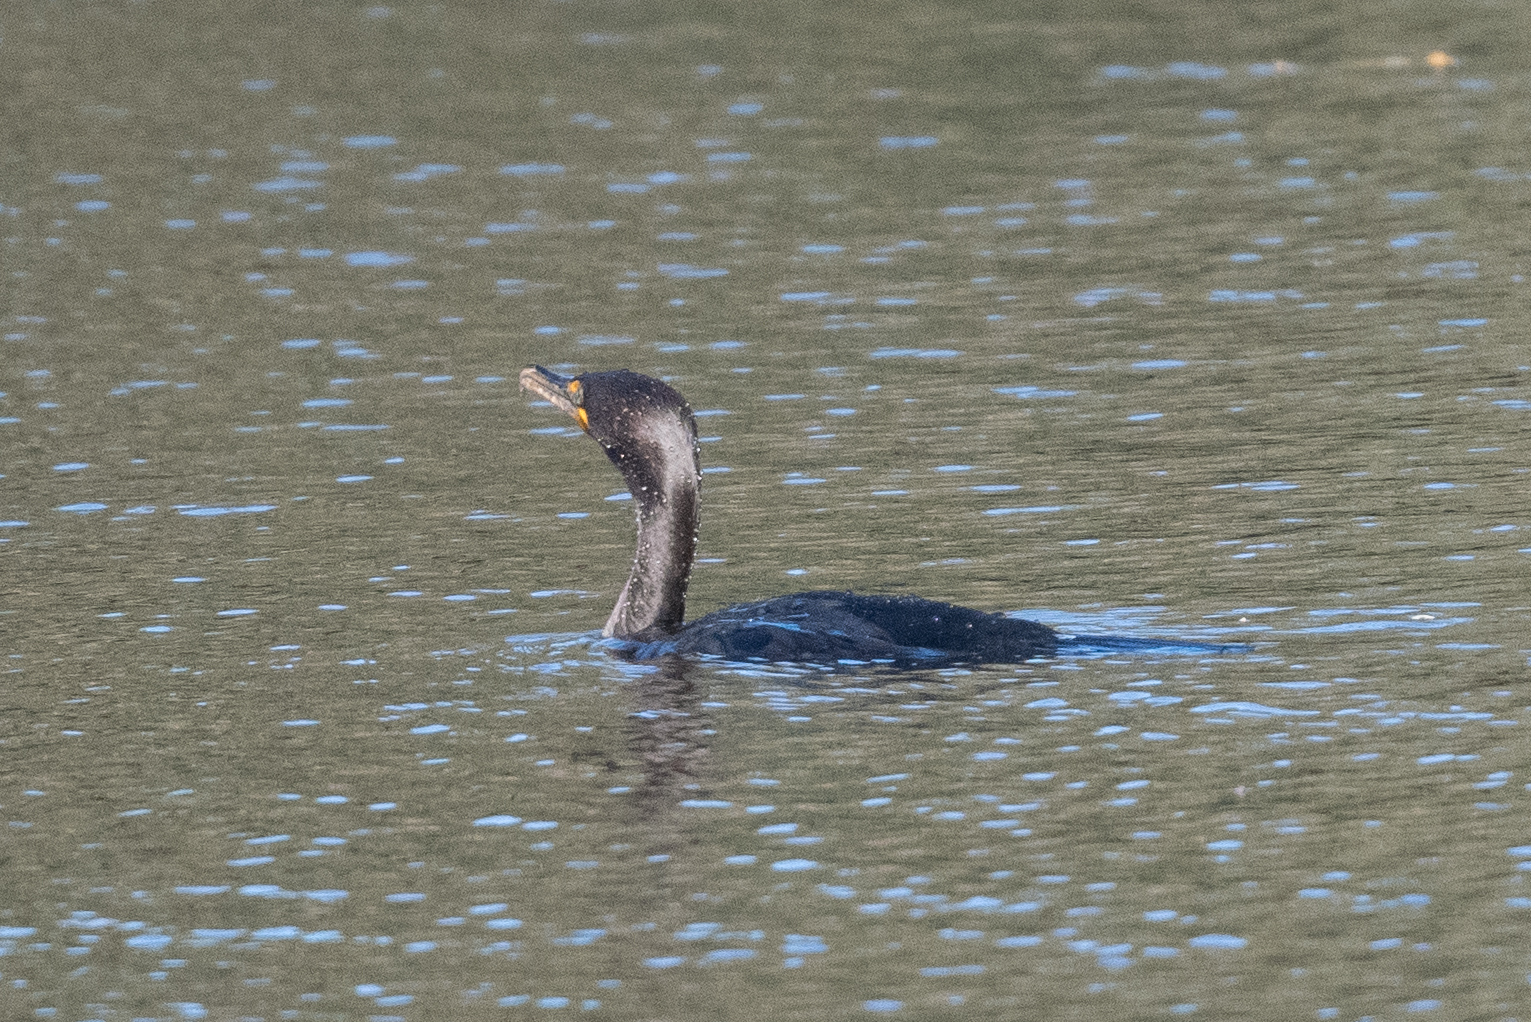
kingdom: Animalia
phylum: Chordata
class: Aves
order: Suliformes
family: Phalacrocoracidae
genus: Phalacrocorax
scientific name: Phalacrocorax auritus
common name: Double-crested cormorant
